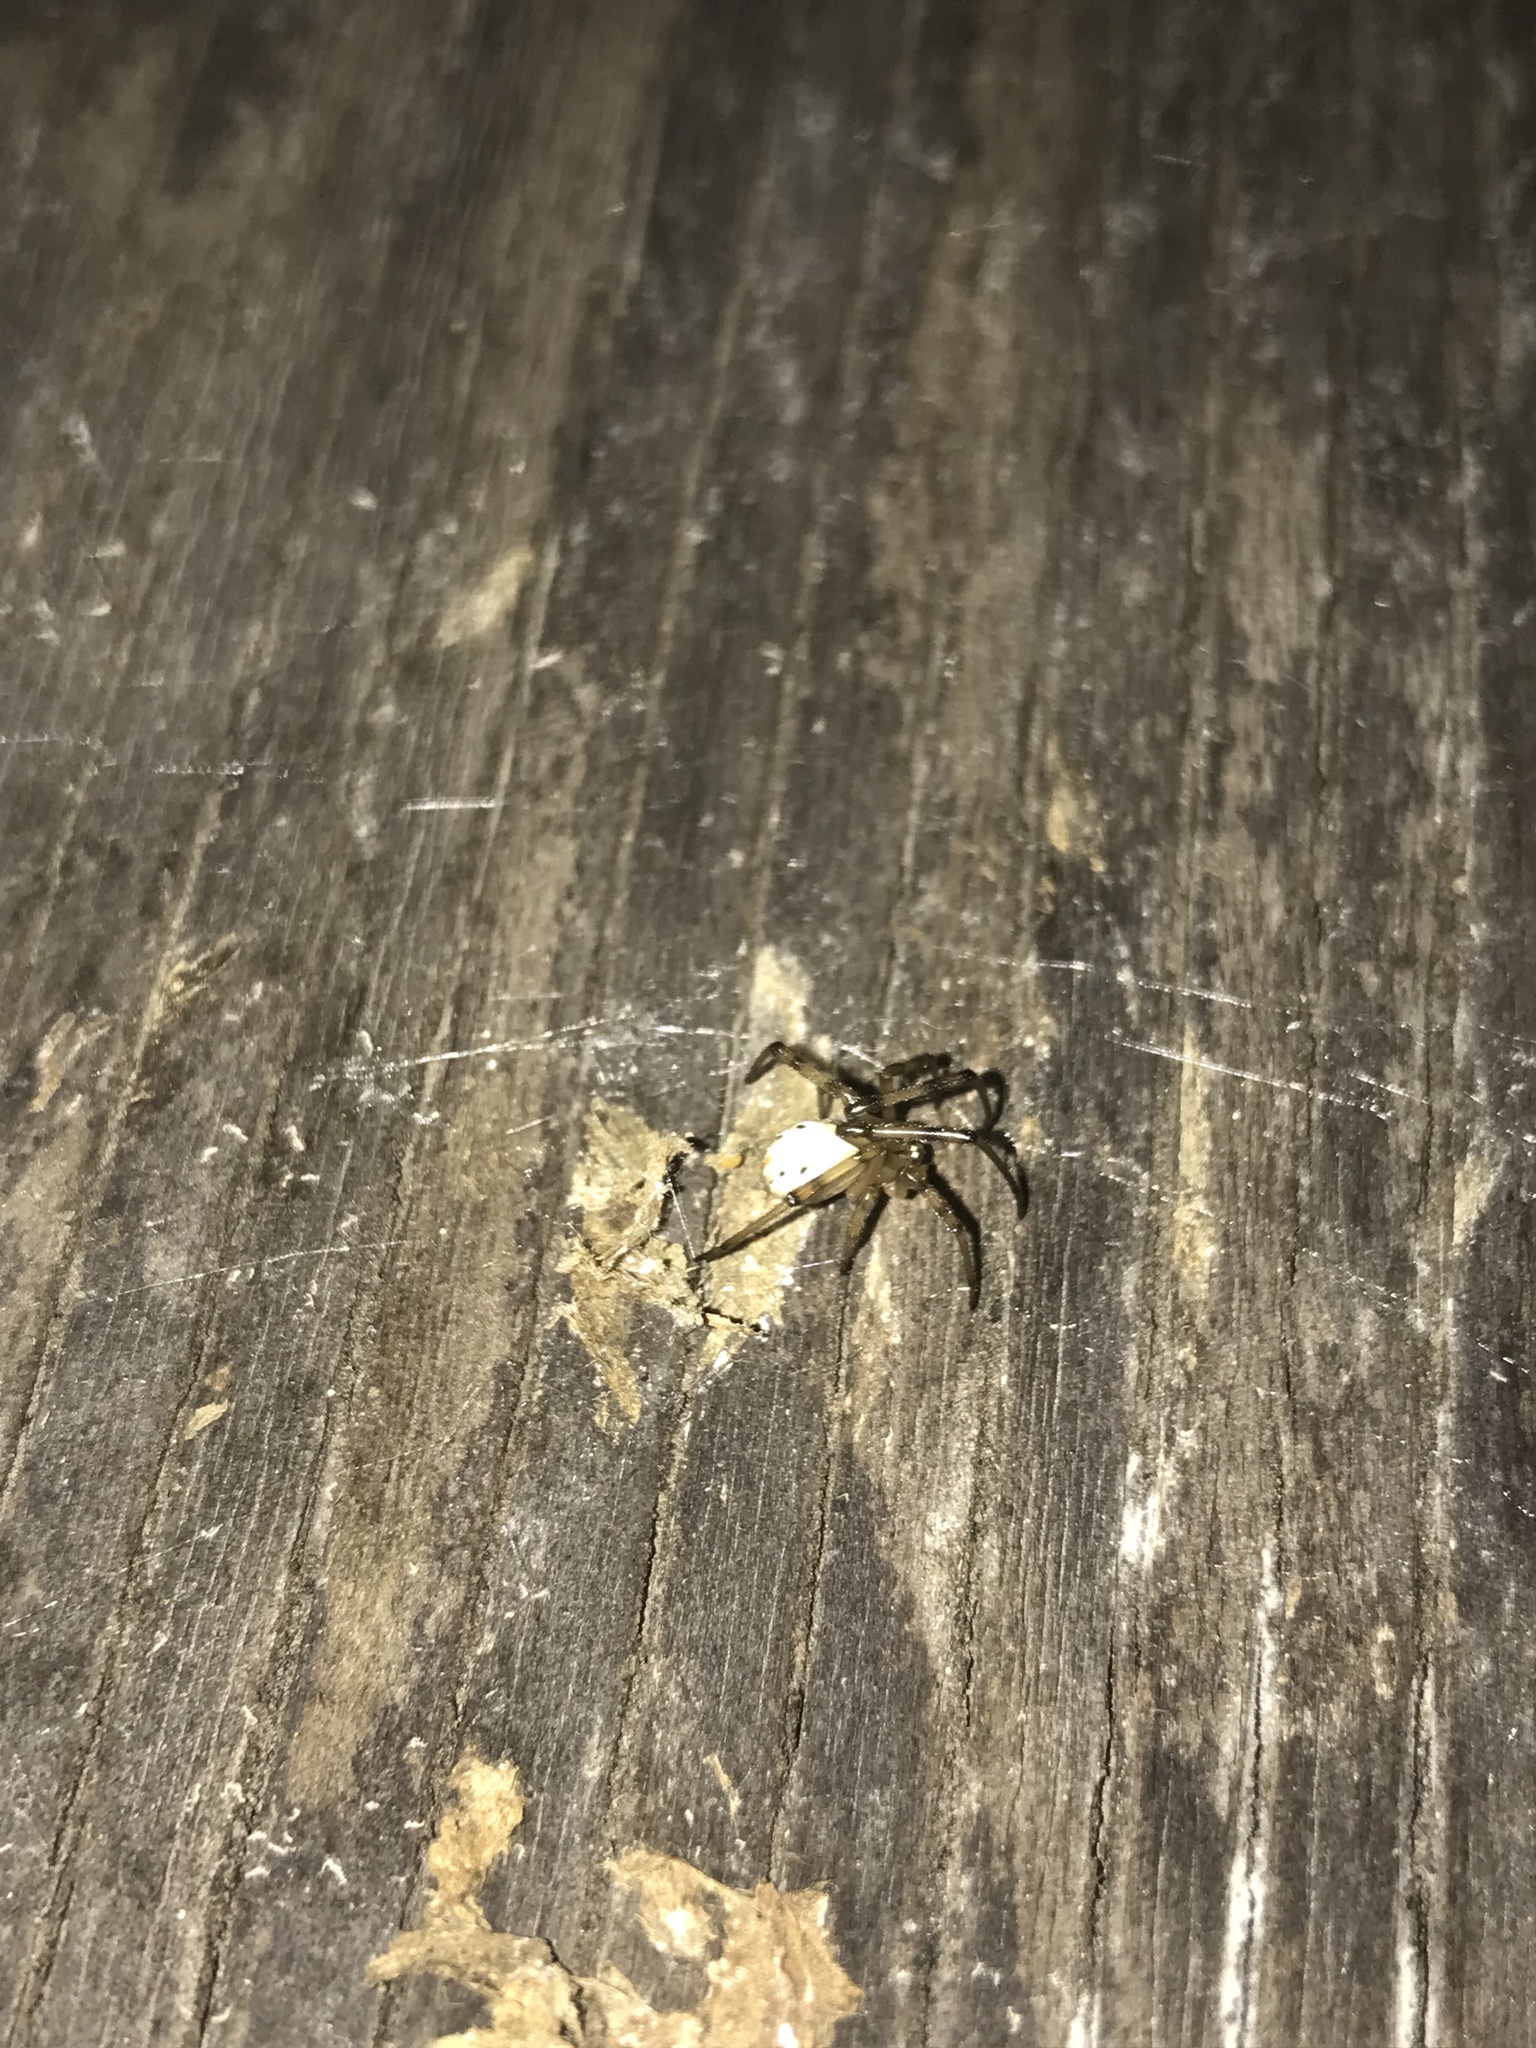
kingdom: Animalia
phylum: Arthropoda
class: Arachnida
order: Araneae
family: Theridiidae
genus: Latrodectus
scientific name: Latrodectus hesperus
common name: Western black widow
